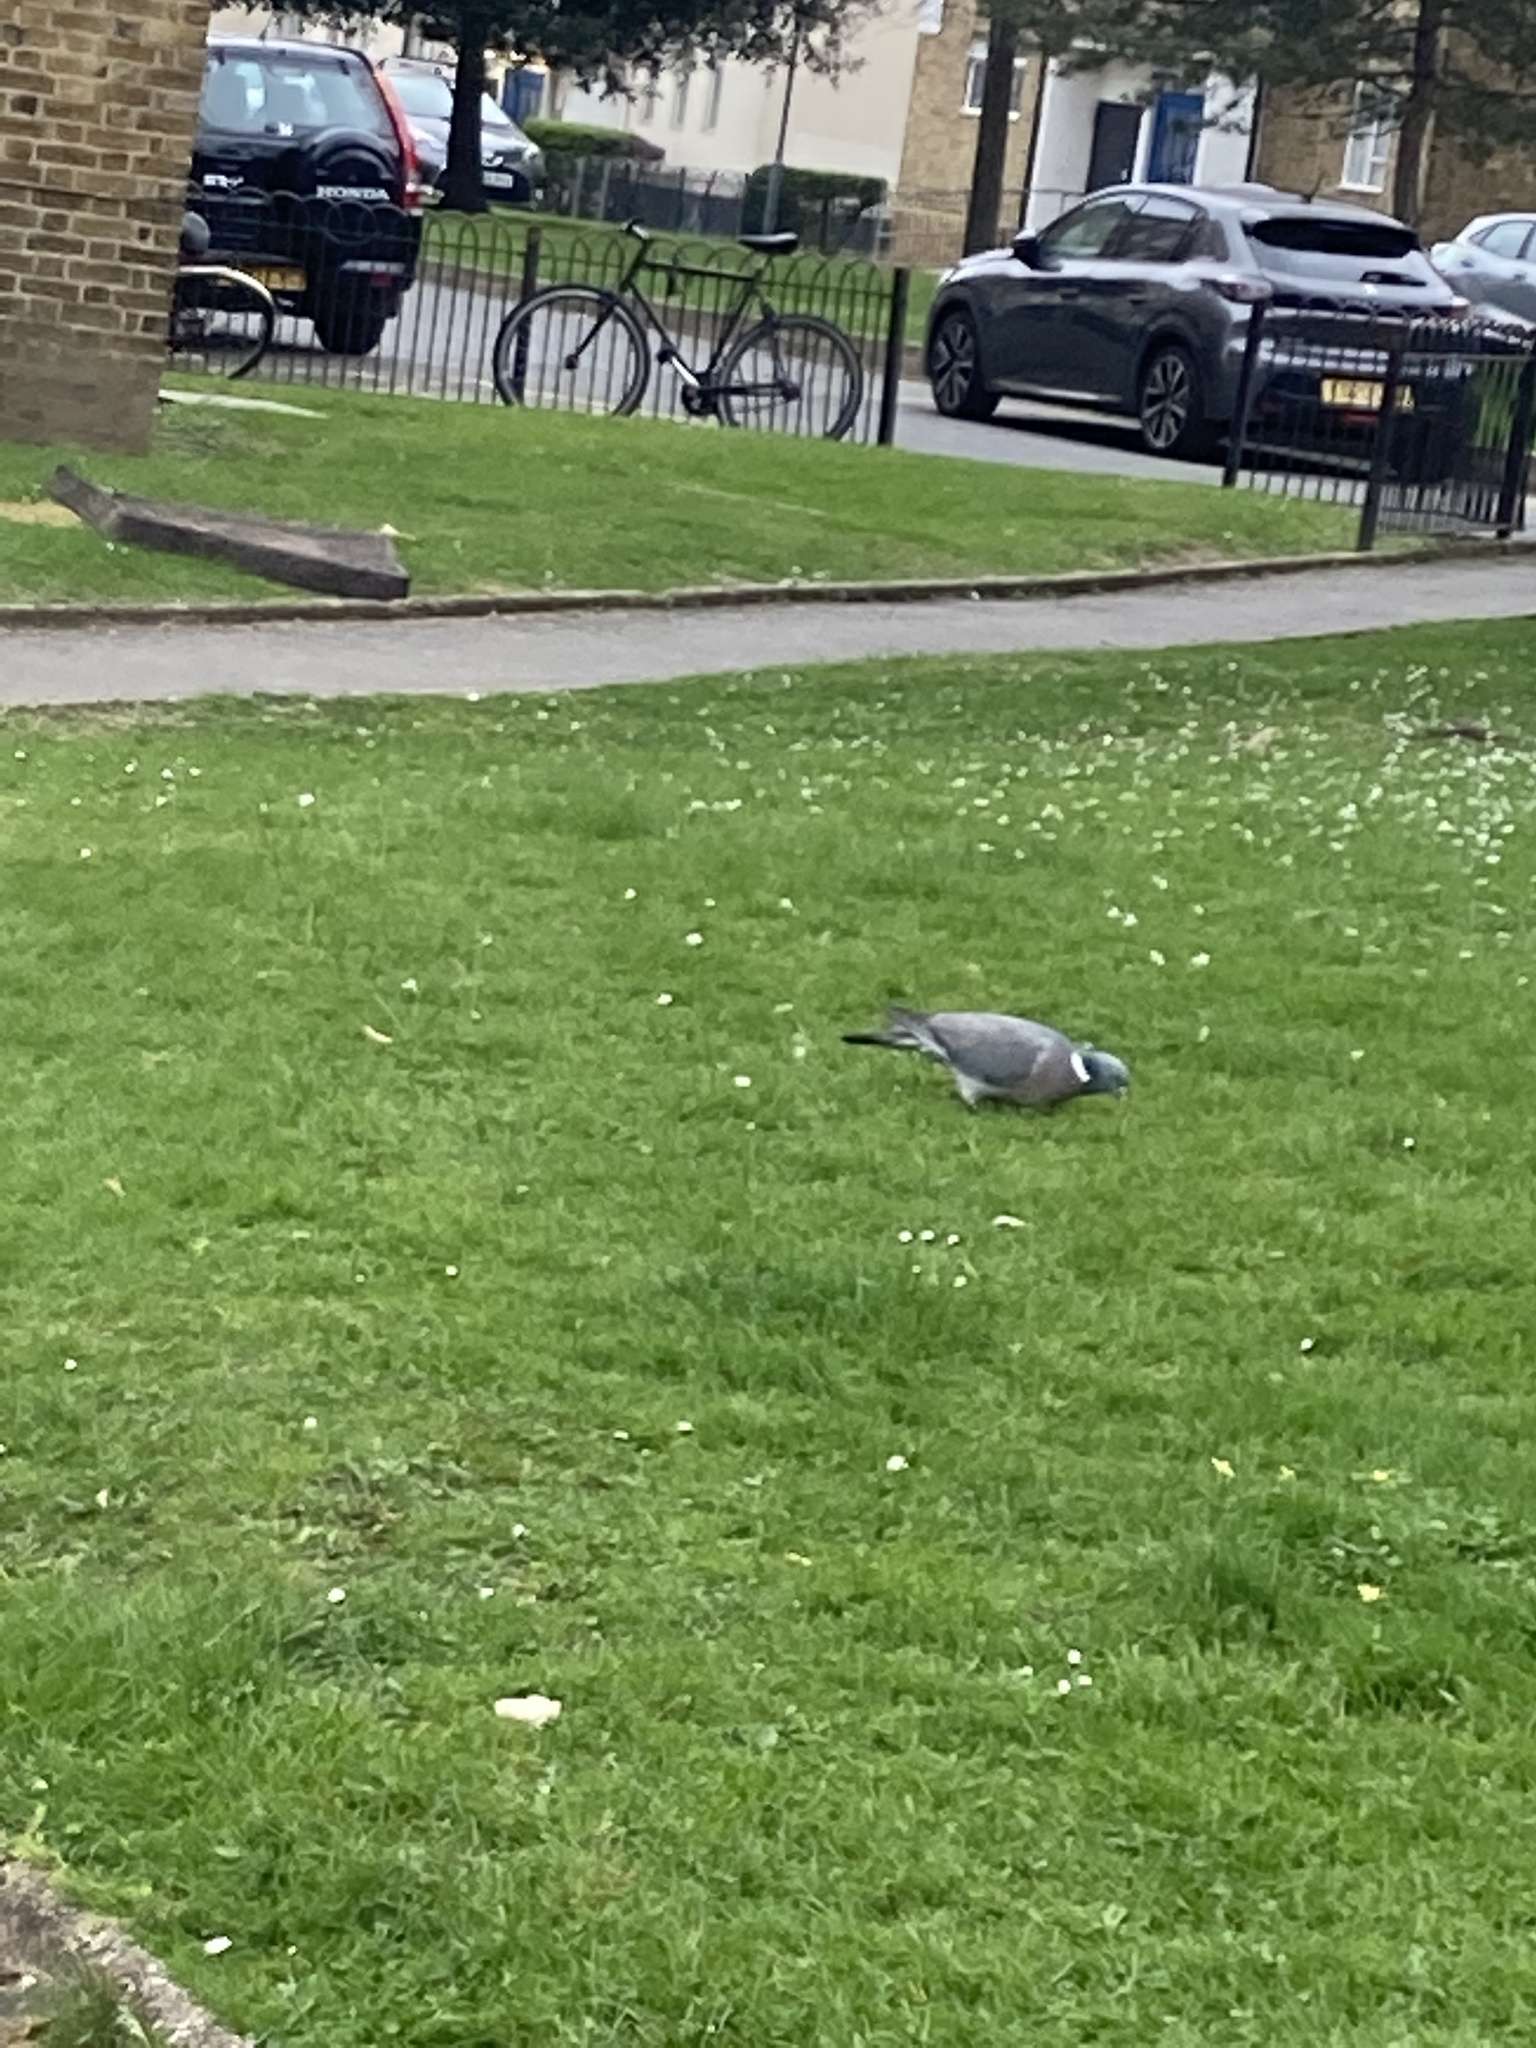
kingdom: Animalia
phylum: Chordata
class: Aves
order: Columbiformes
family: Columbidae
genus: Columba
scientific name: Columba palumbus
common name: Common wood pigeon
